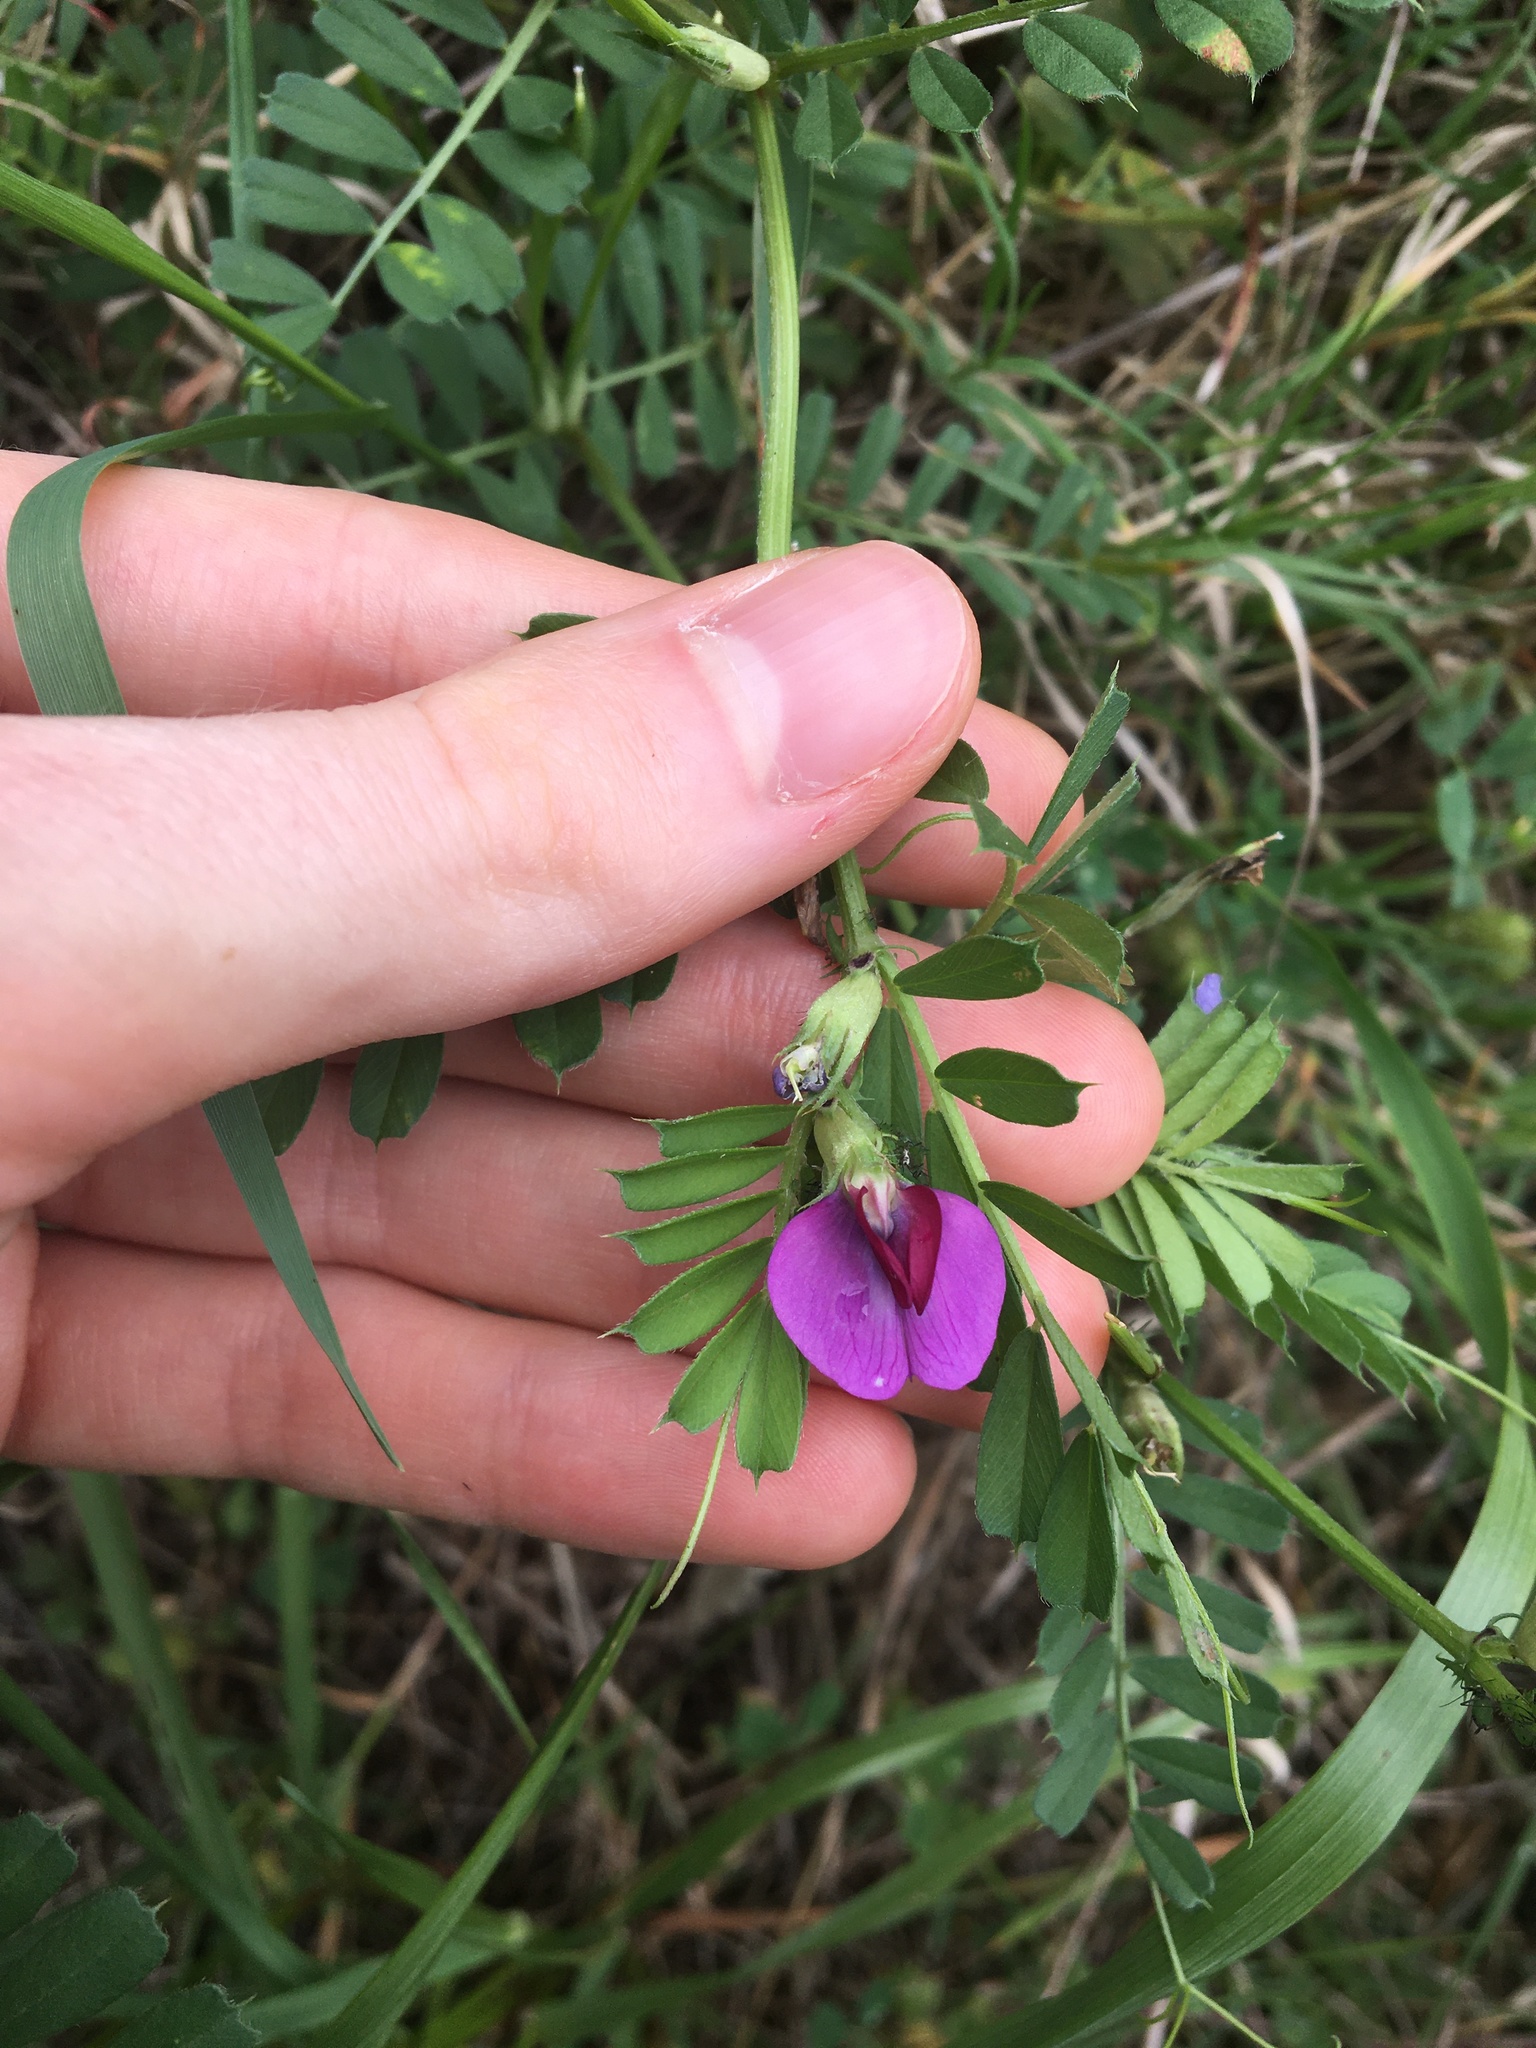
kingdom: Plantae
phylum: Tracheophyta
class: Magnoliopsida
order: Fabales
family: Fabaceae
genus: Vicia
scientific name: Vicia sativa
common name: Garden vetch
